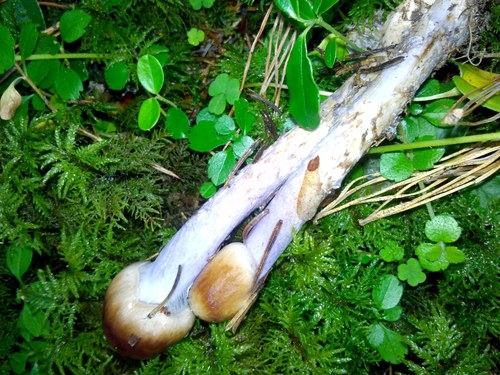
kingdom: Fungi
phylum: Basidiomycota
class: Agaricomycetes
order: Agaricales
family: Cortinariaceae
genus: Cortinarius
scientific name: Cortinarius
